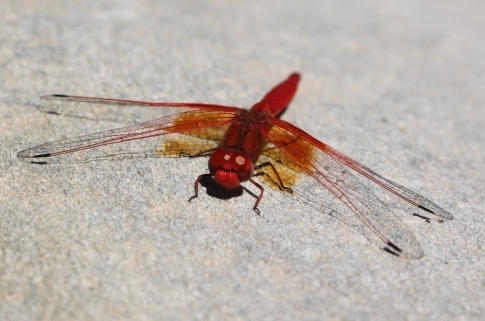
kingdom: Animalia
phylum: Arthropoda
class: Insecta
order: Odonata
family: Libellulidae
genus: Trithemis
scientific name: Trithemis kirbyi
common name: Kirby's dropwing
